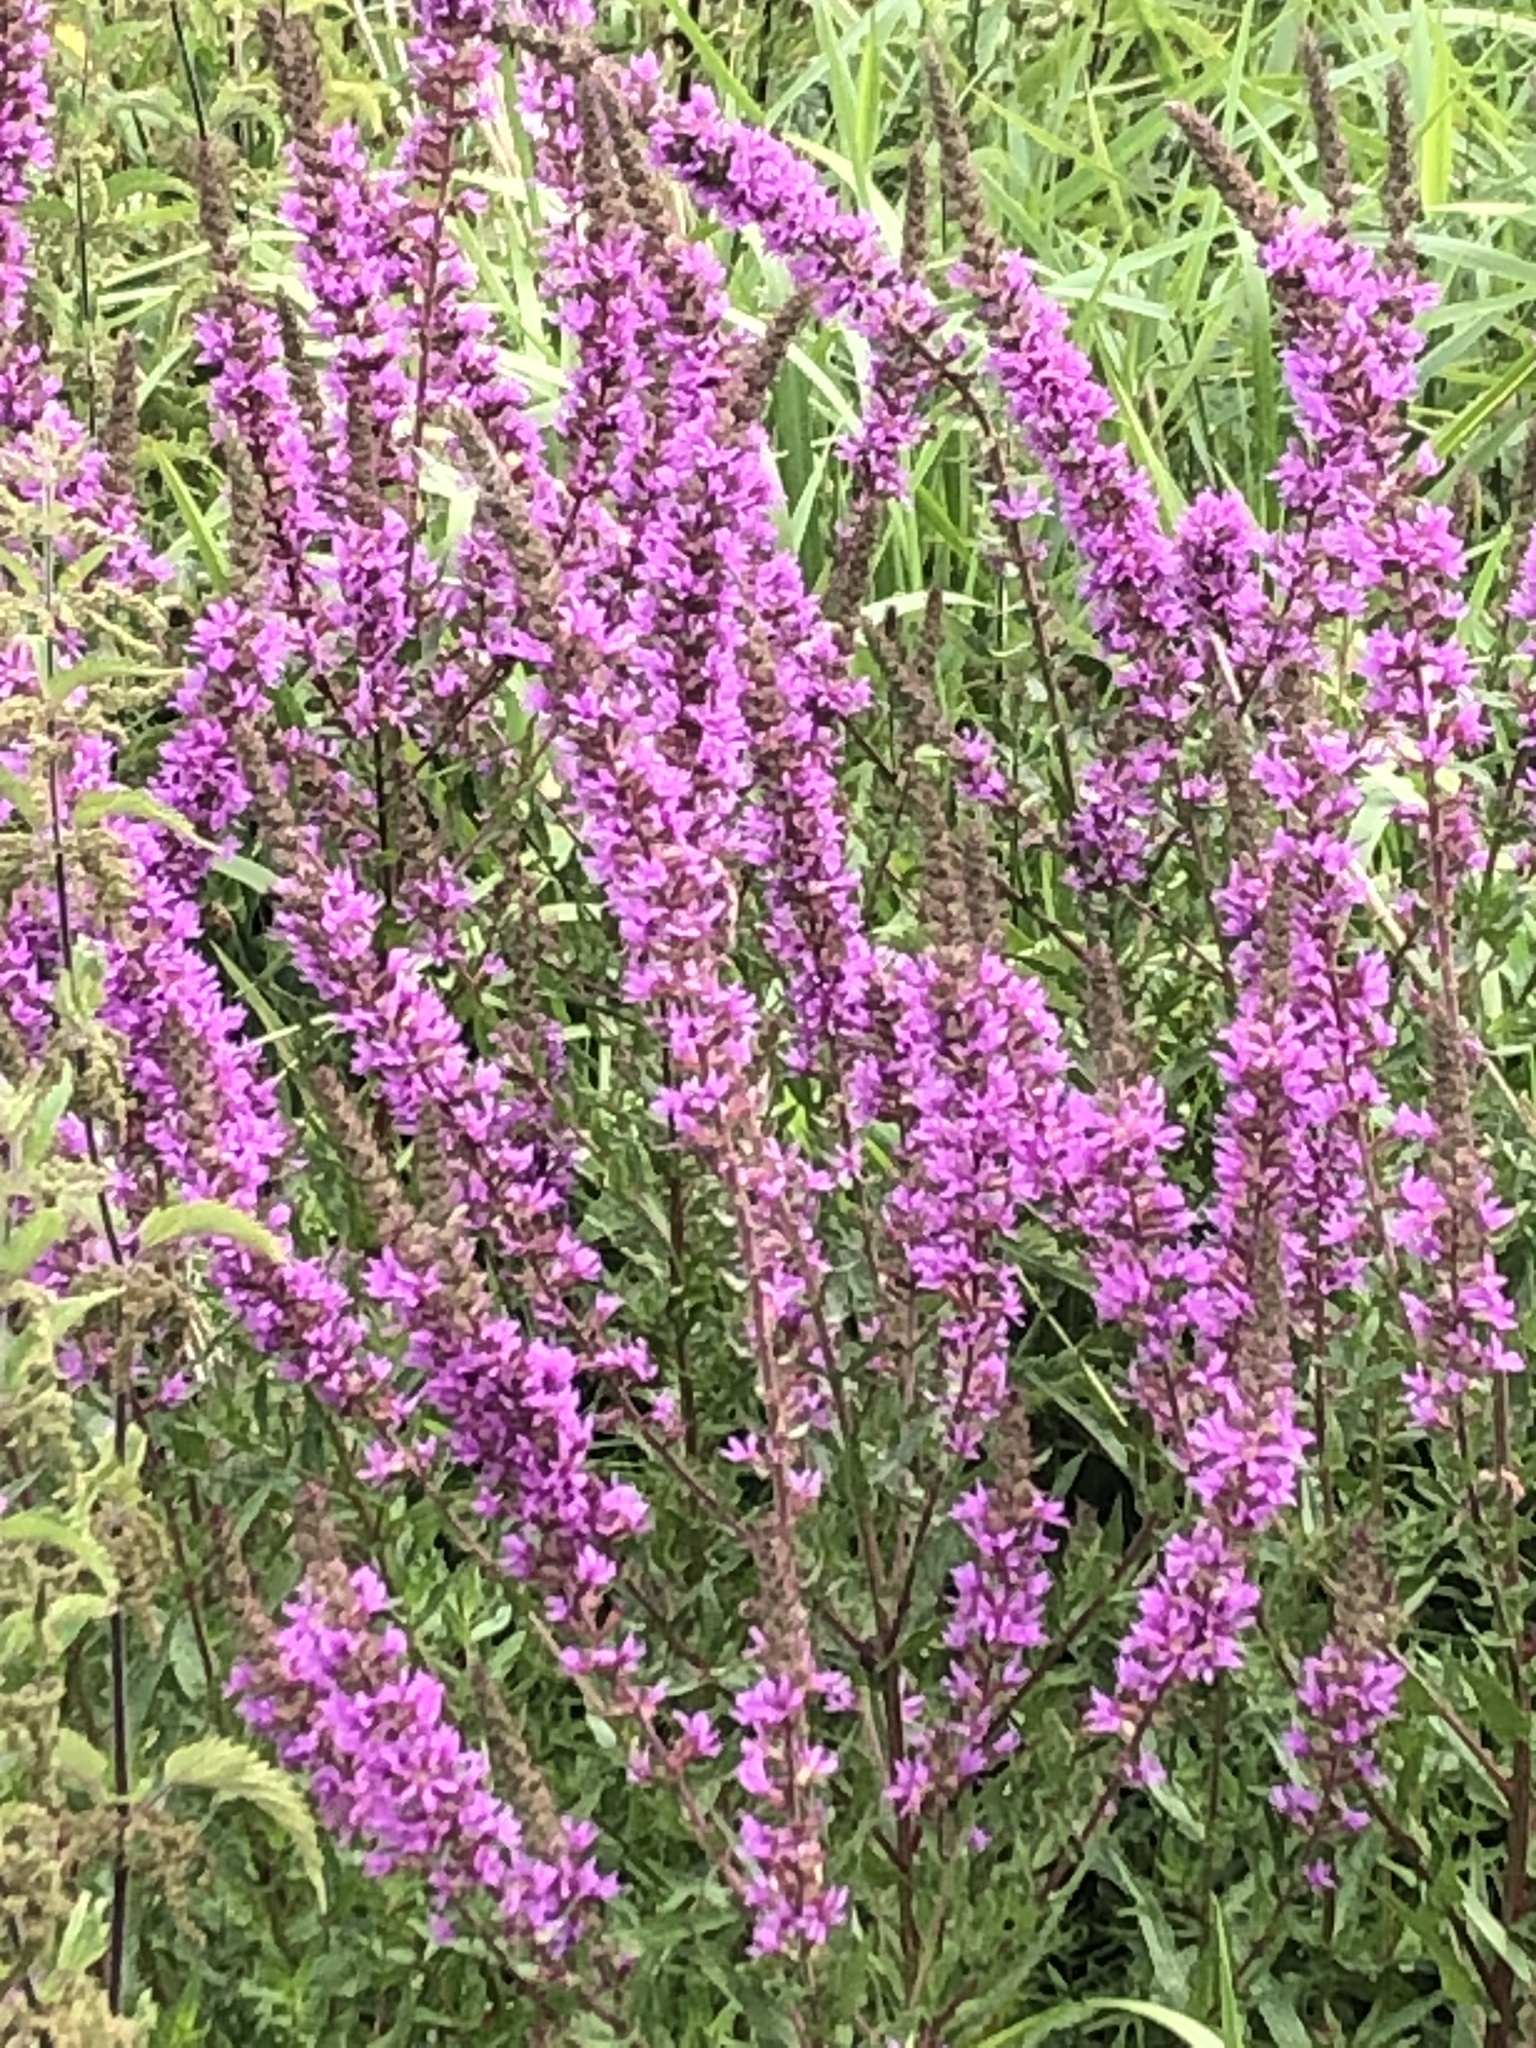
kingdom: Plantae
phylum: Tracheophyta
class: Magnoliopsida
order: Myrtales
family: Lythraceae
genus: Lythrum
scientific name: Lythrum salicaria
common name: Purple loosestrife
